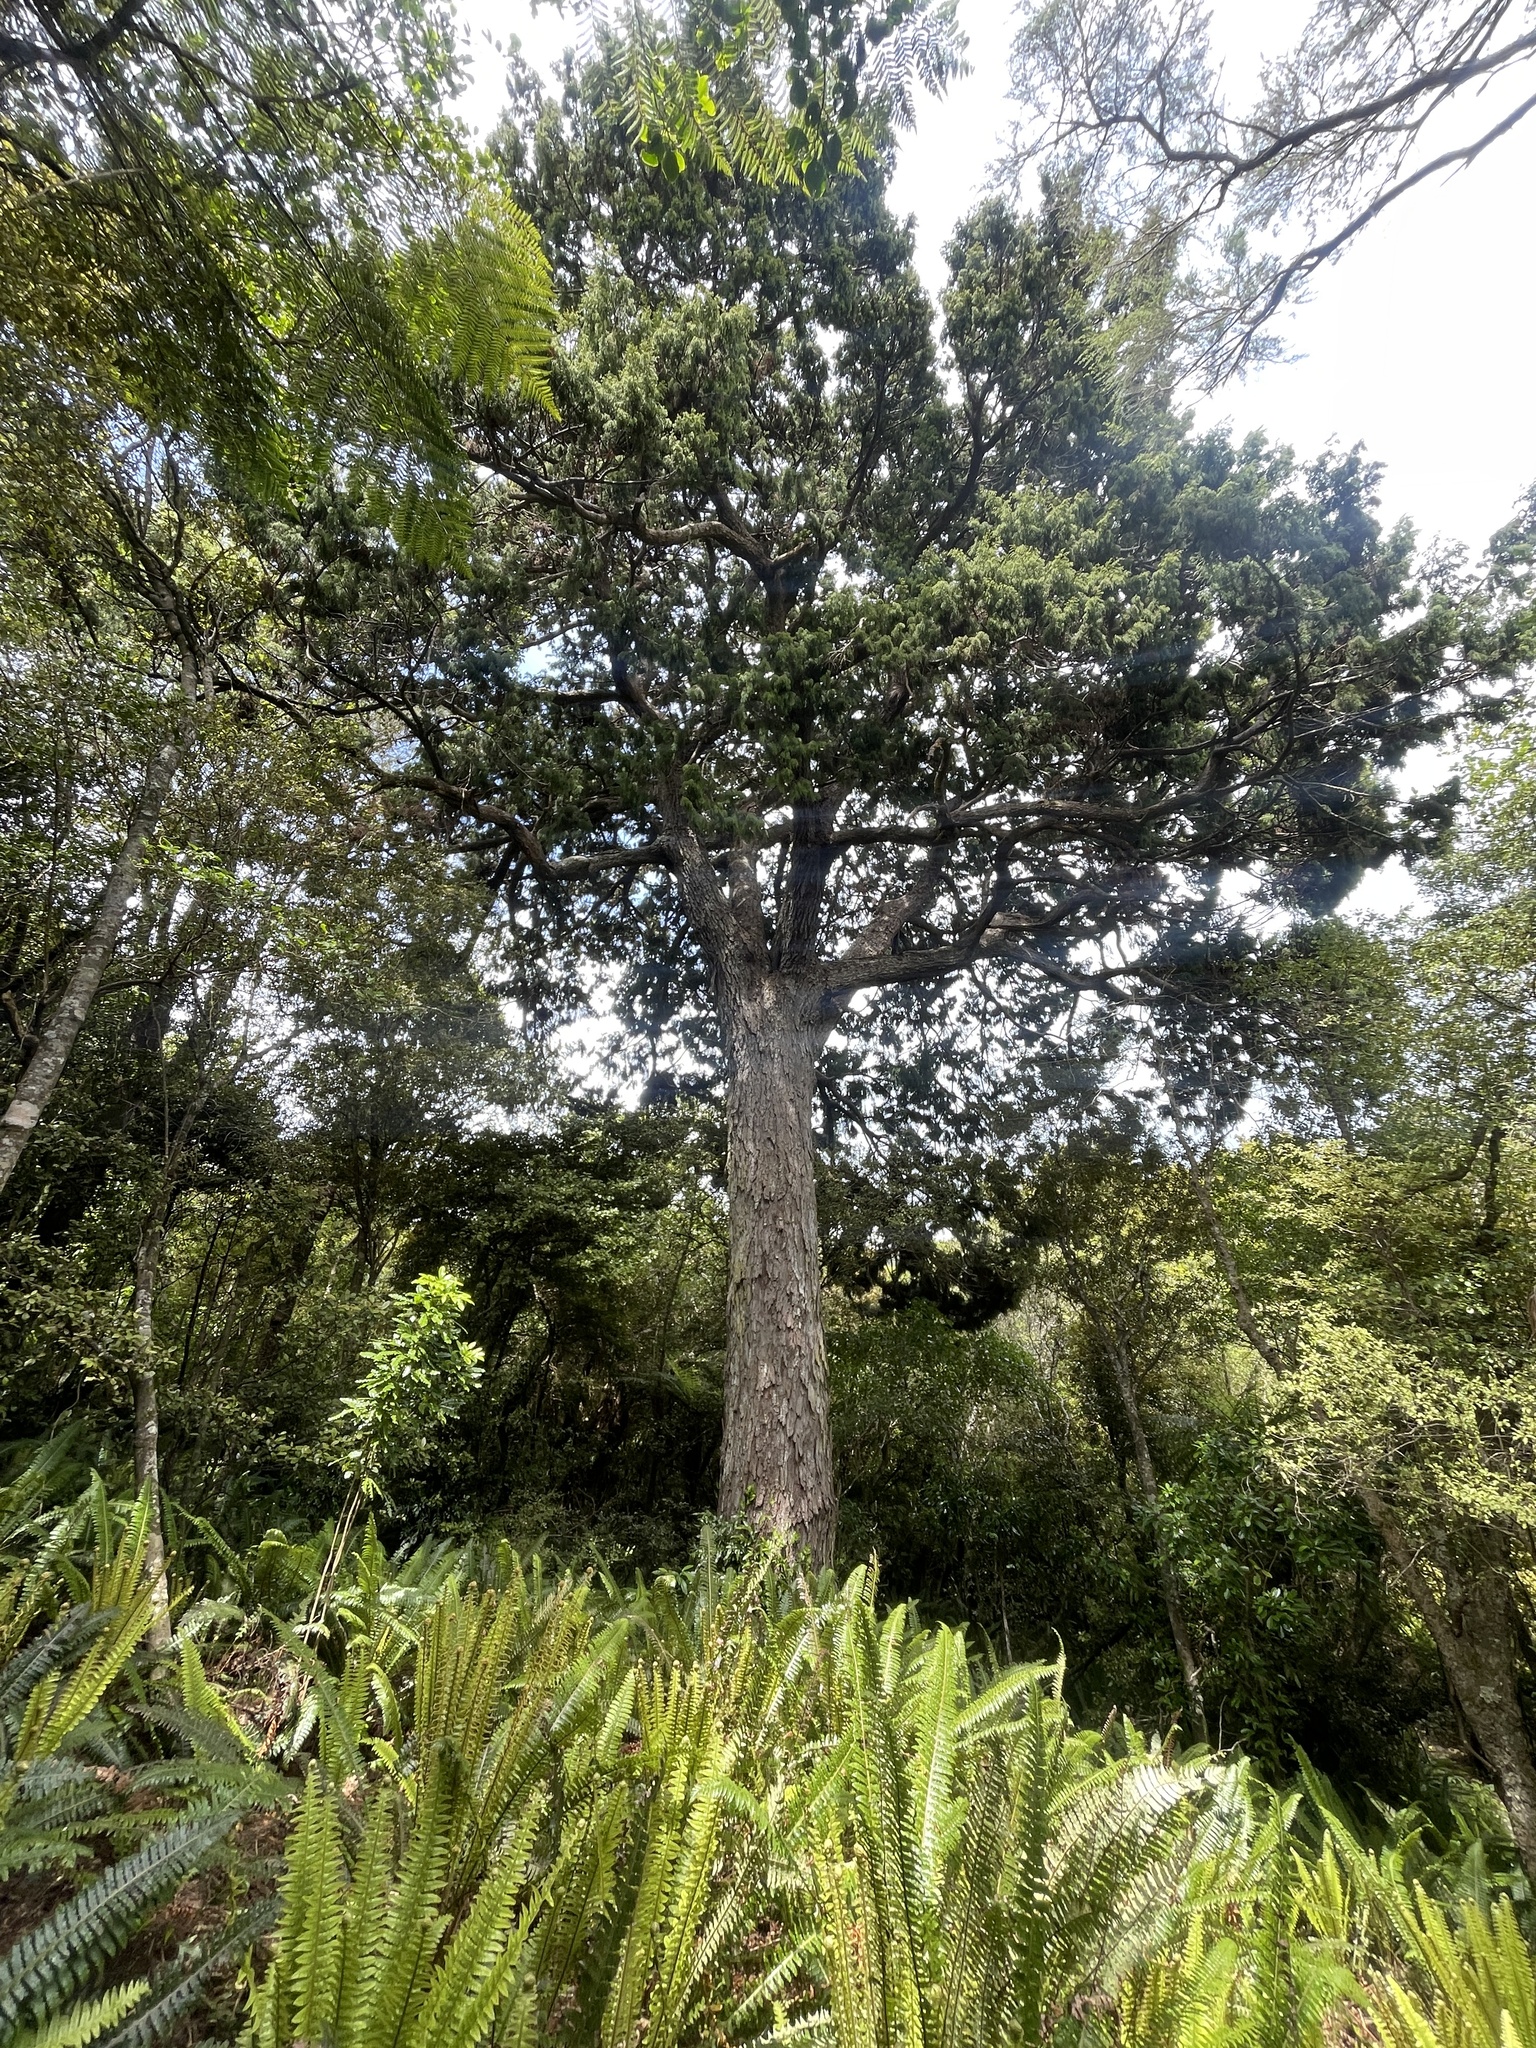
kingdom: Plantae
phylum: Tracheophyta
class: Pinopsida
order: Pinales
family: Podocarpaceae
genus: Dacrydium
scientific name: Dacrydium cupressinum
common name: Red pine
